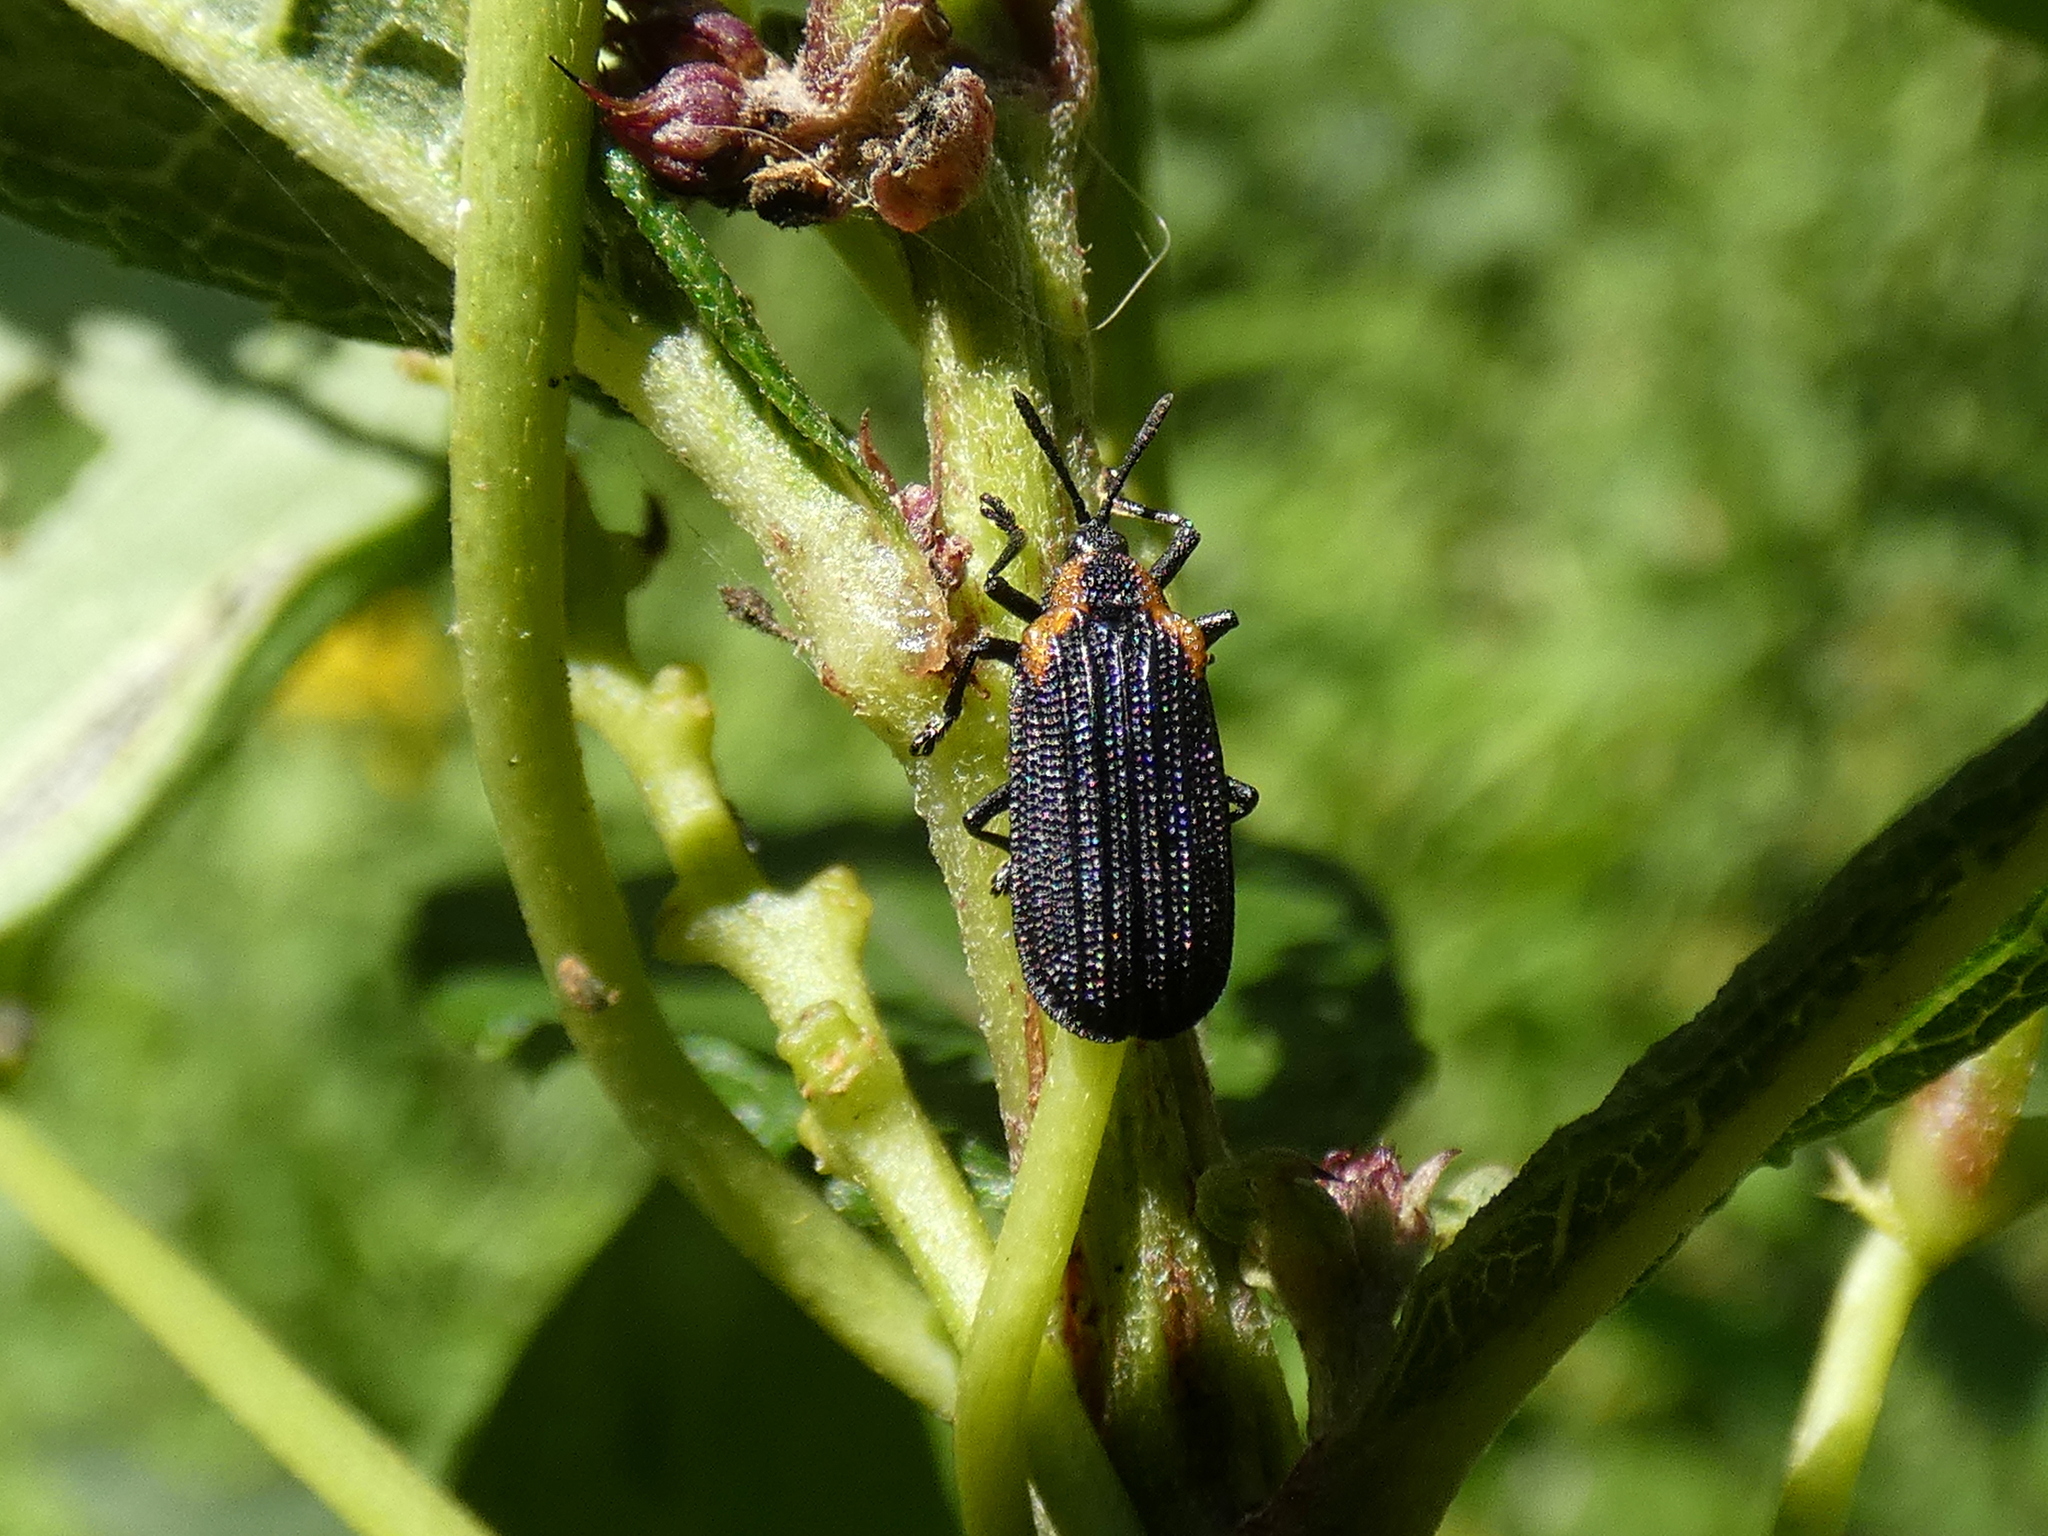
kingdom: Animalia
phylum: Arthropoda
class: Insecta
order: Coleoptera
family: Chrysomelidae
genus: Odontota
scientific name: Odontota mundula
